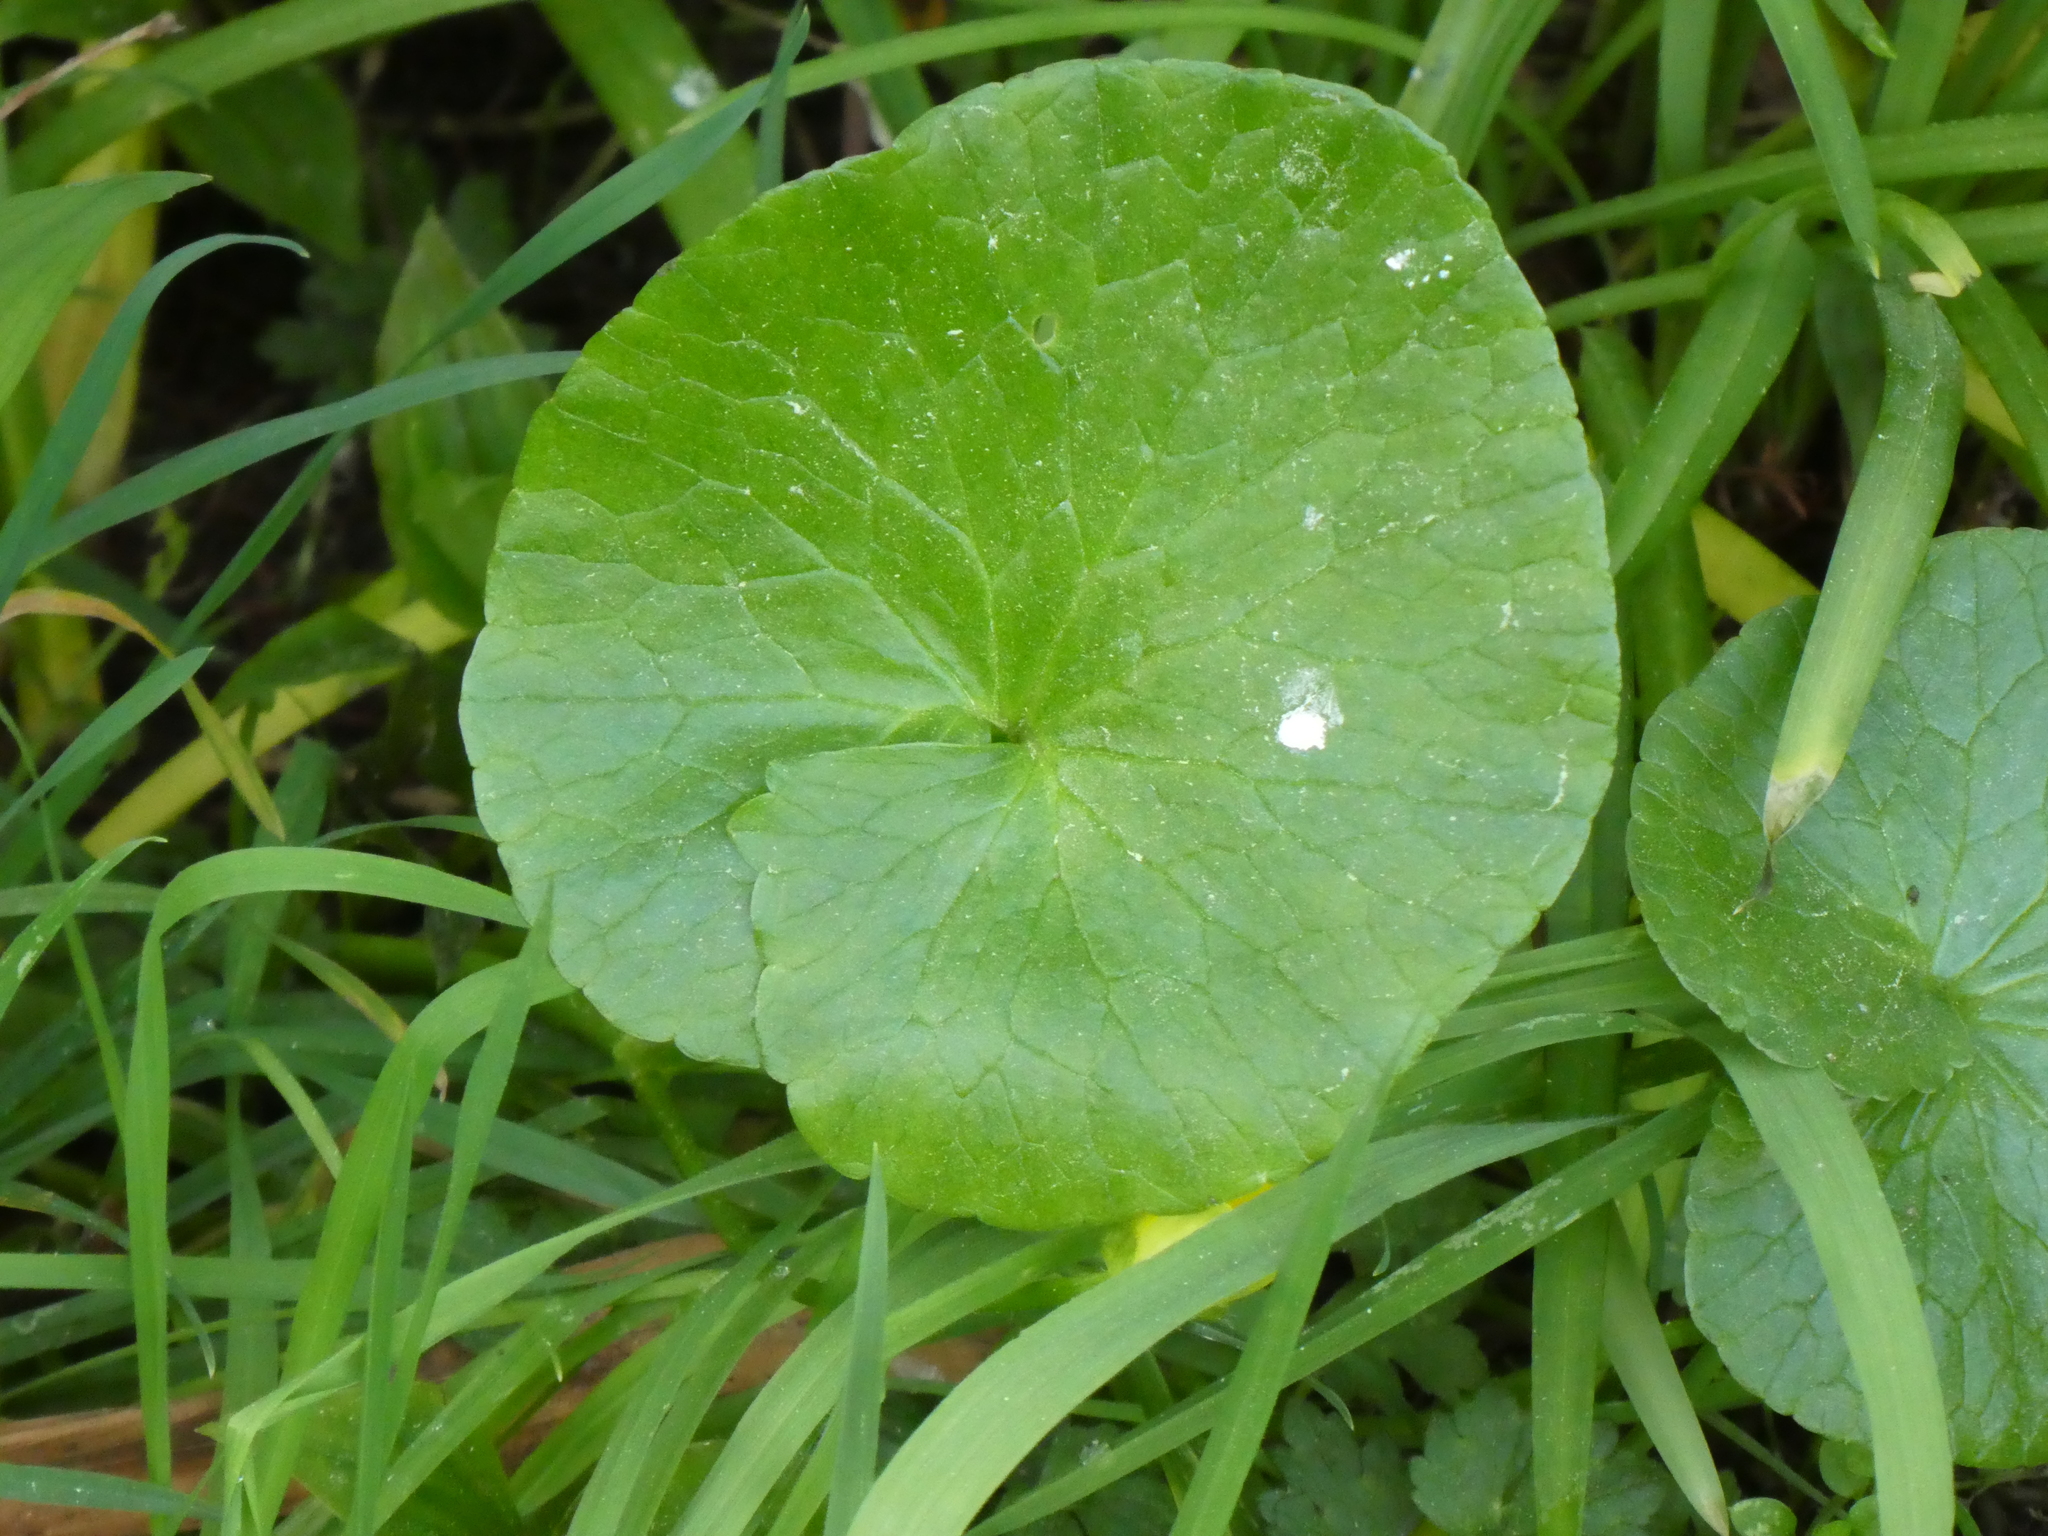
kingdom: Plantae
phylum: Tracheophyta
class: Magnoliopsida
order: Ranunculales
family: Ranunculaceae
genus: Ficaria
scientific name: Ficaria verna
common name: Lesser celandine
